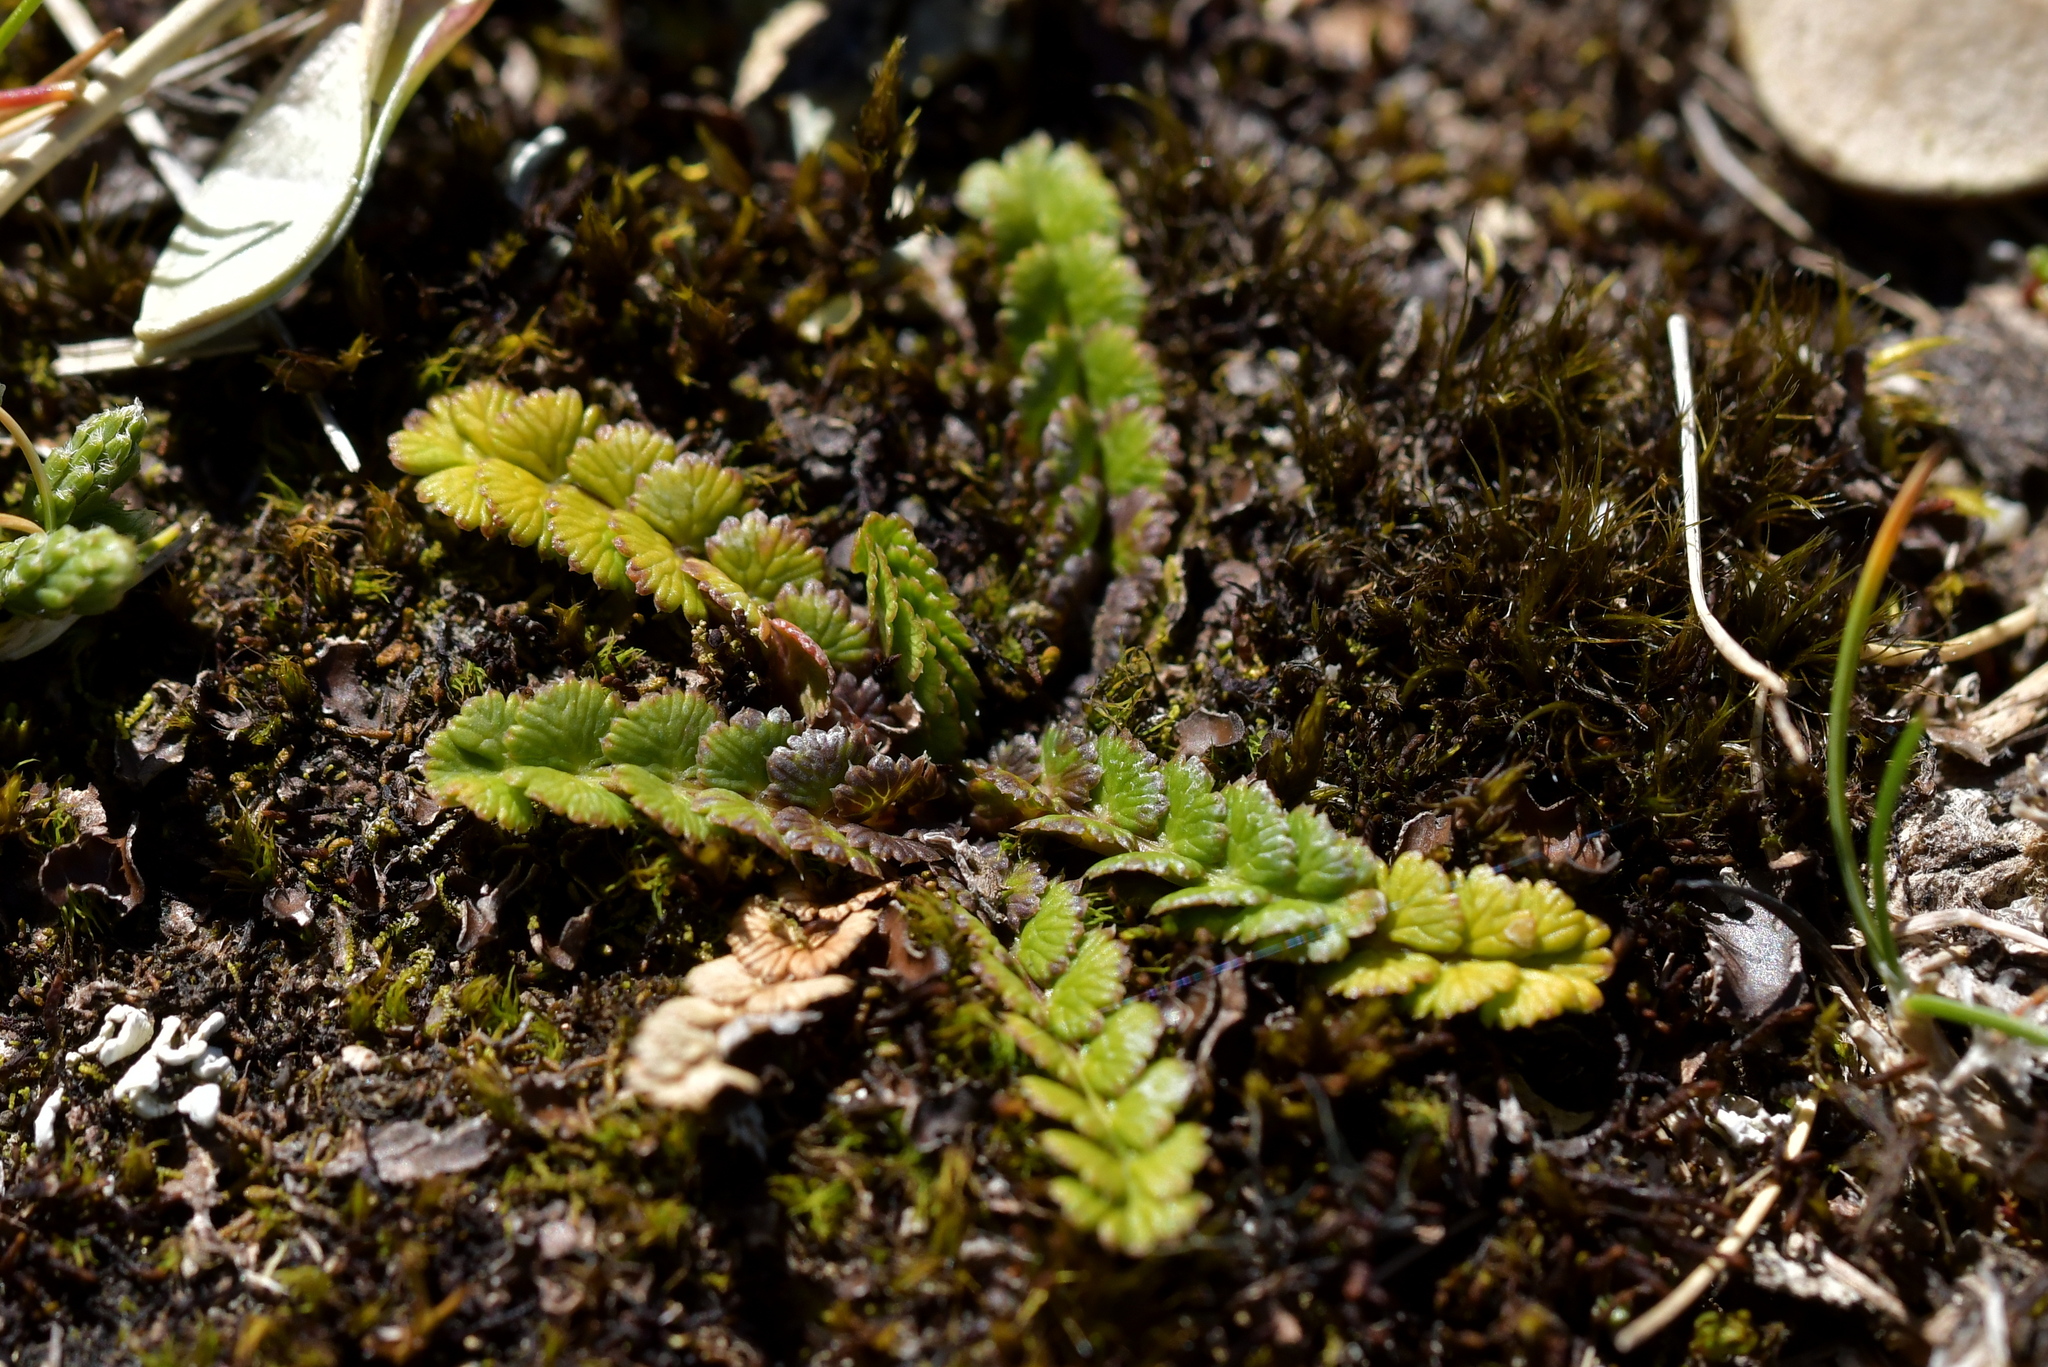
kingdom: Plantae
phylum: Tracheophyta
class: Magnoliopsida
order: Apiales
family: Apiaceae
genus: Anisotome
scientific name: Anisotome aromatica
